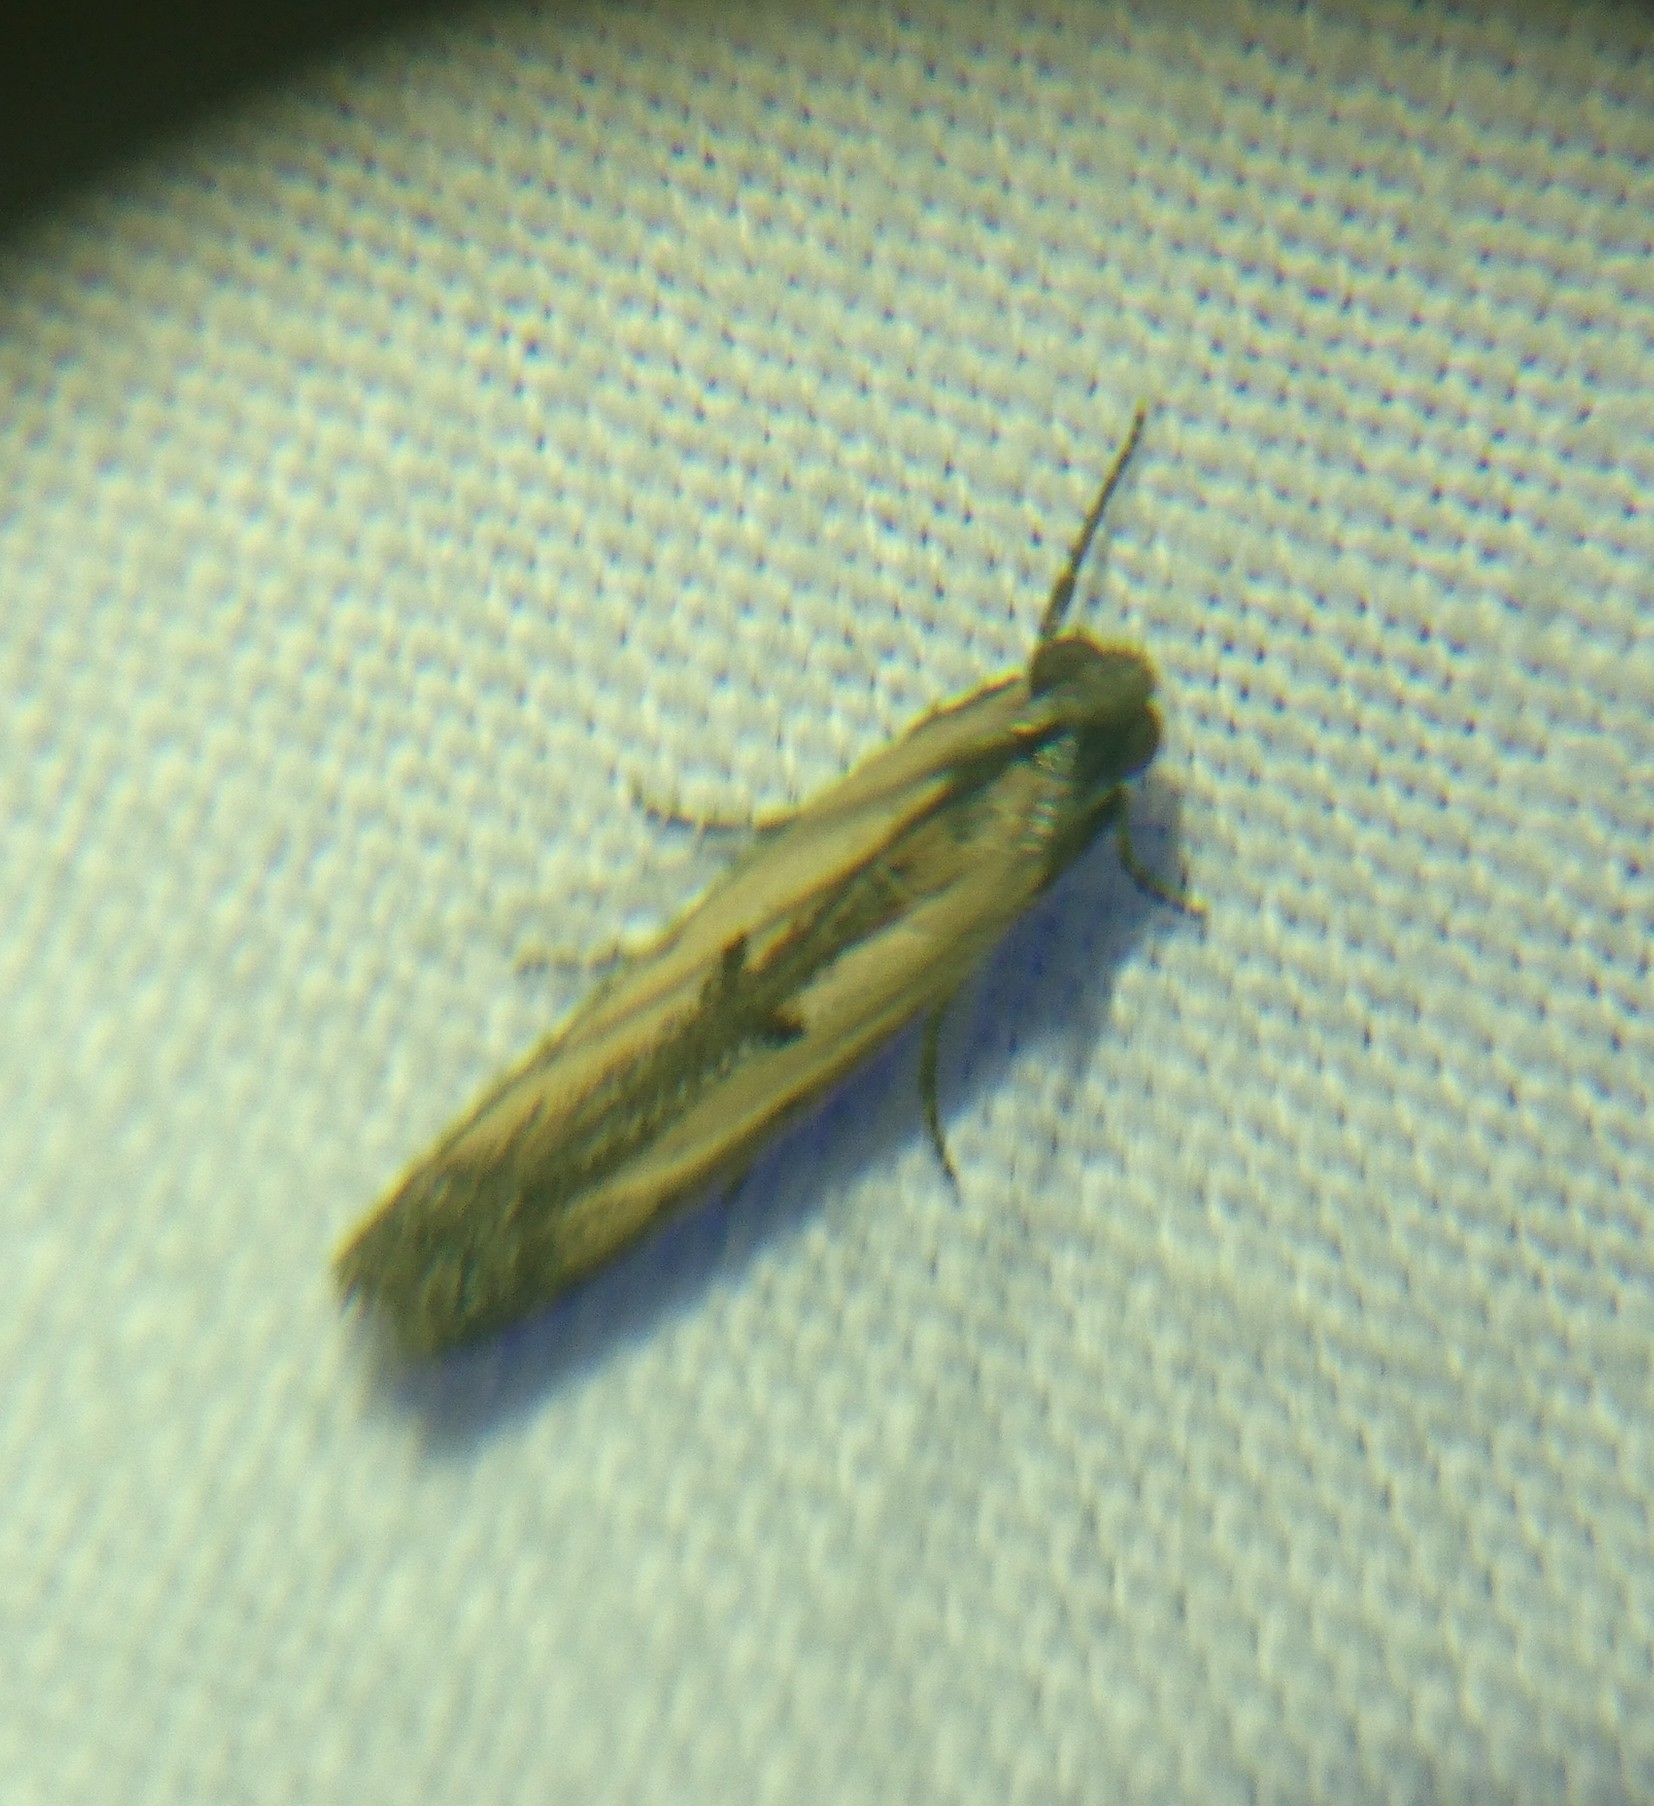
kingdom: Animalia
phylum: Arthropoda
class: Insecta
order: Lepidoptera
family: Pyralidae
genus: Elasmopalpus
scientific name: Elasmopalpus lignosella
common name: Lesser cornstalk borer
